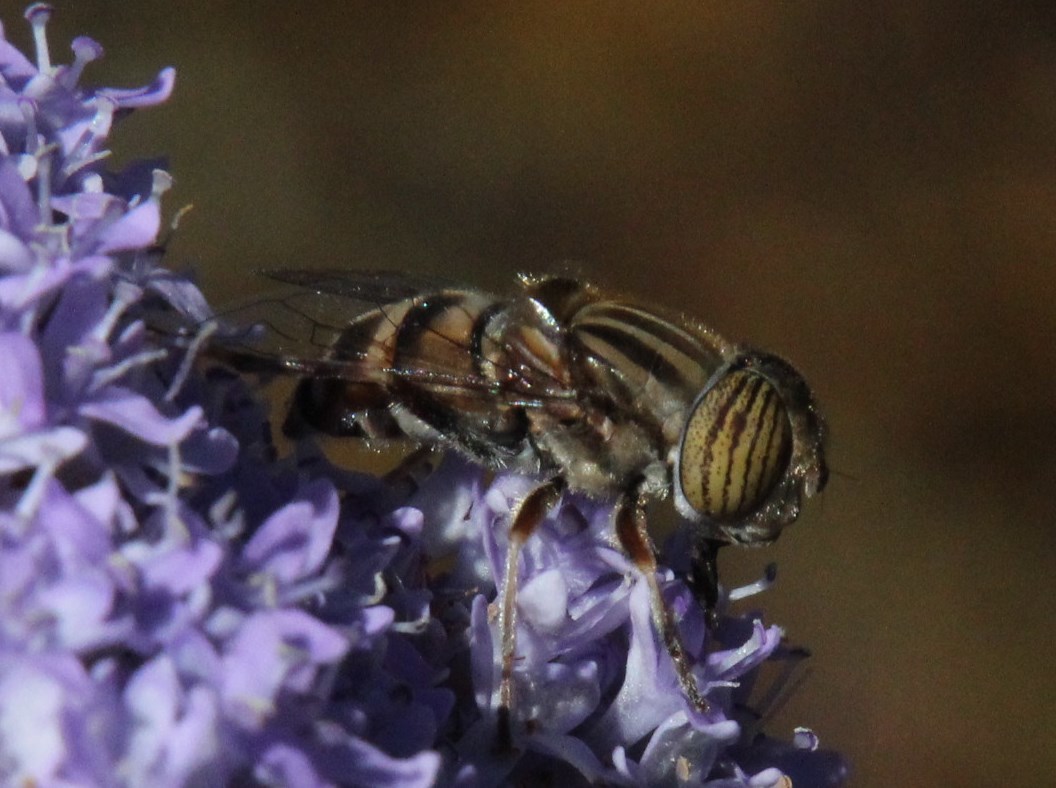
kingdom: Plantae
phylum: Tracheophyta
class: Magnoliopsida
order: Lamiales
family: Scrophulariaceae
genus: Pseudoselago
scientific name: Pseudoselago serrata
